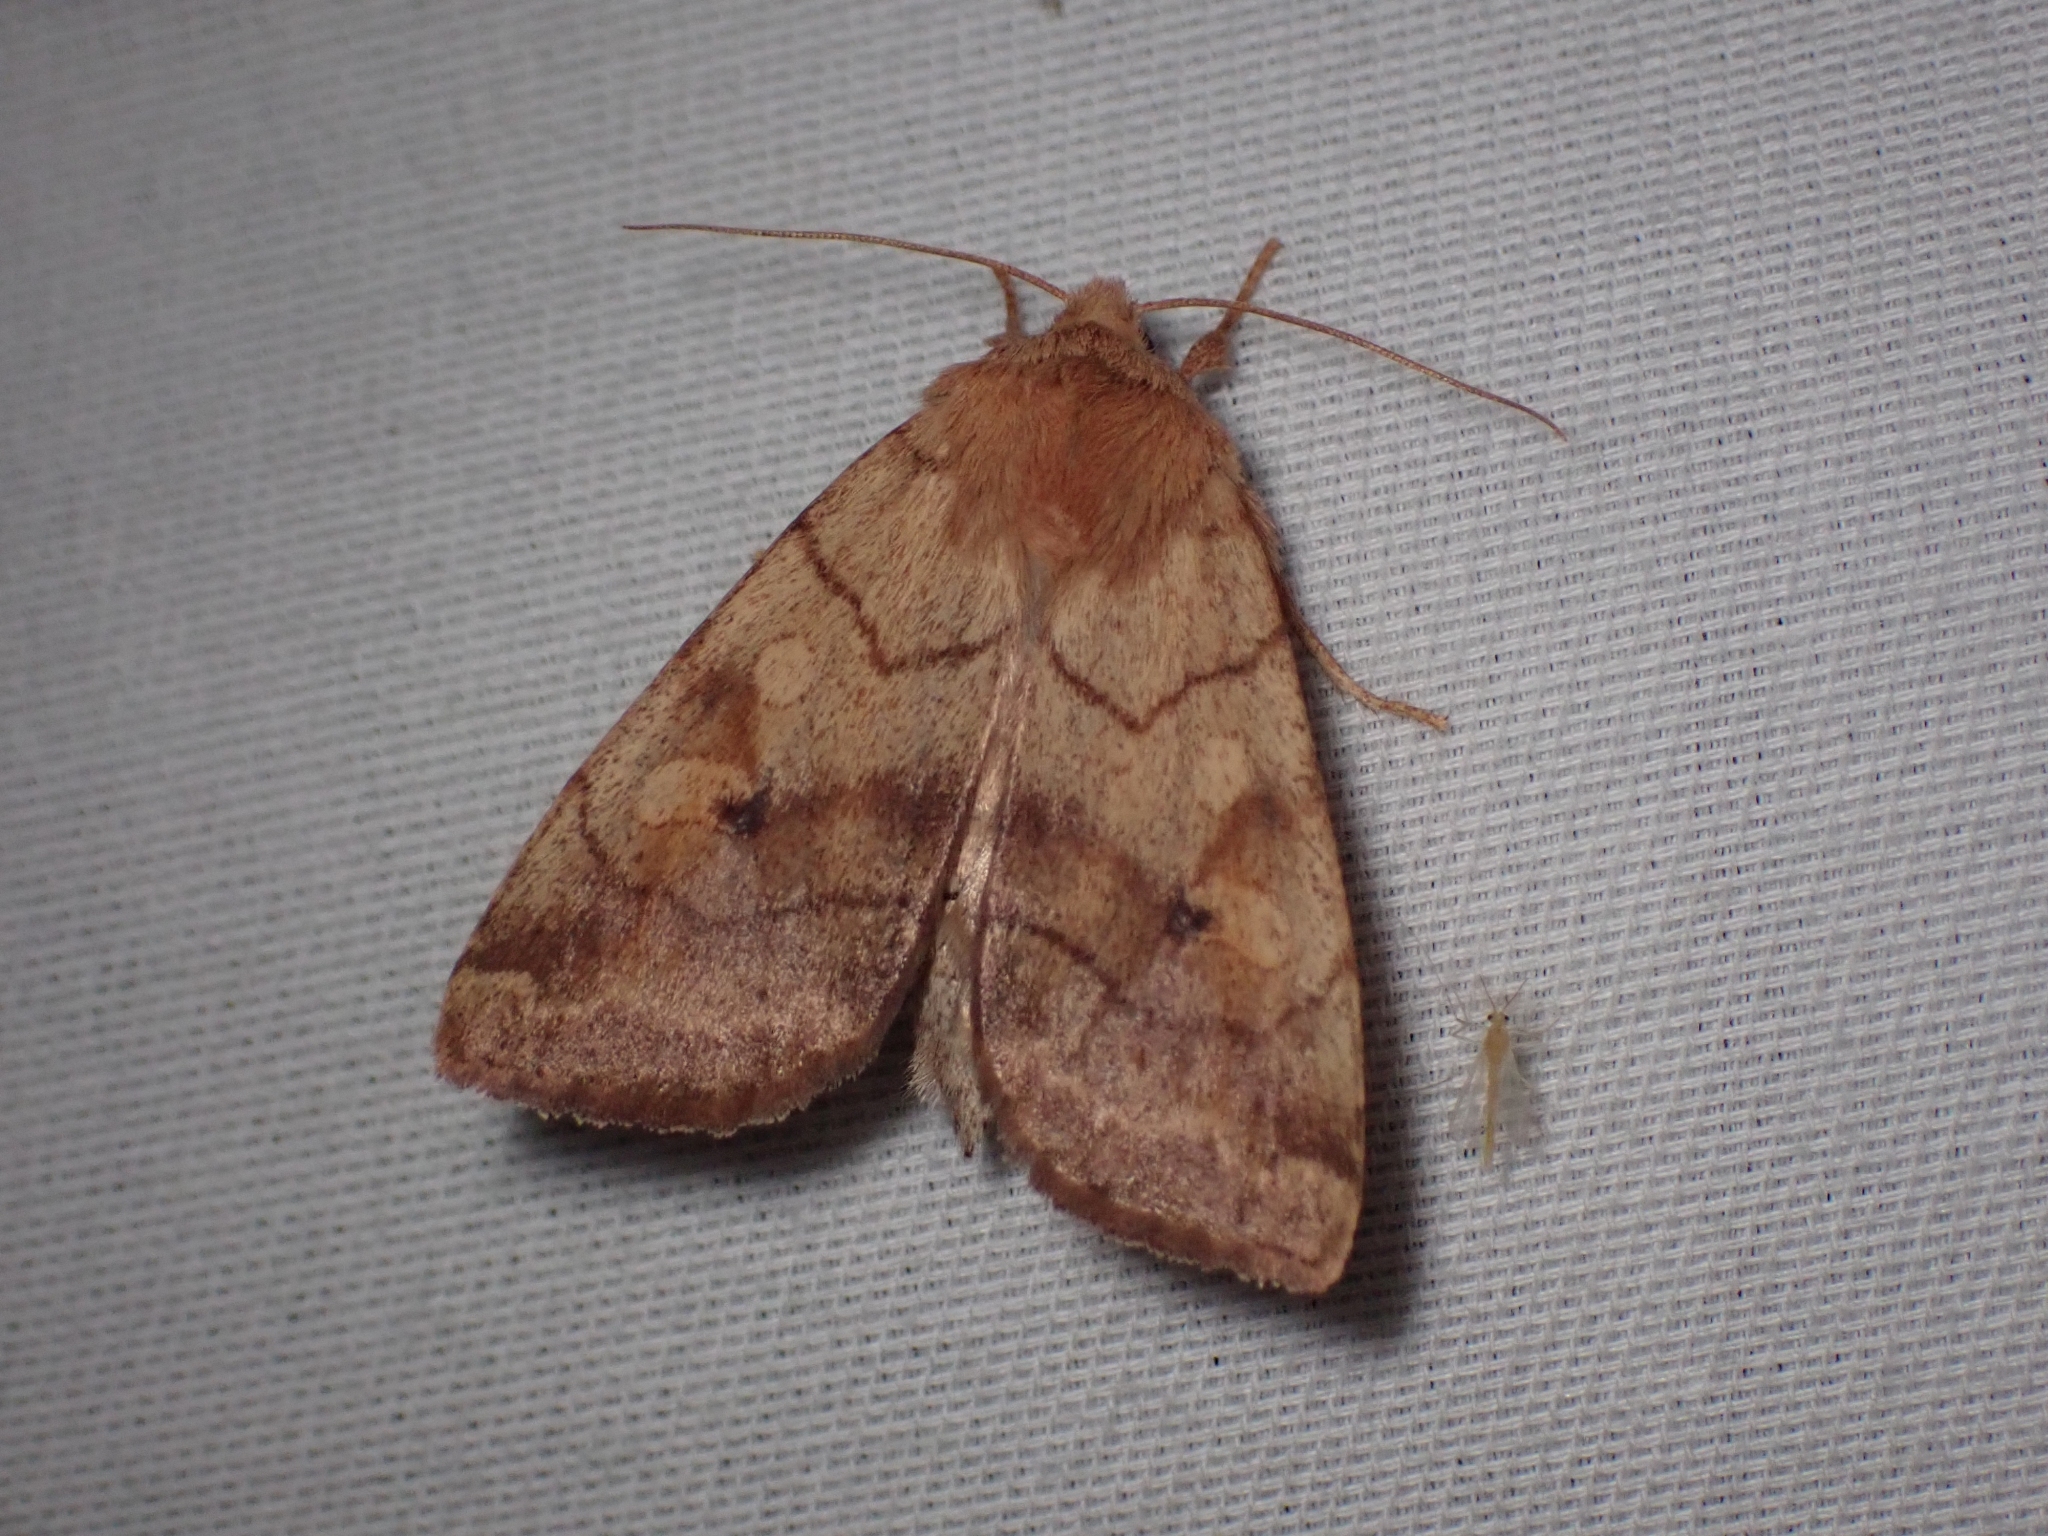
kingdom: Animalia
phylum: Arthropoda
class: Insecta
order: Lepidoptera
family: Noctuidae
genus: Enargia
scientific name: Enargia infumata
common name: Smoked sallow
